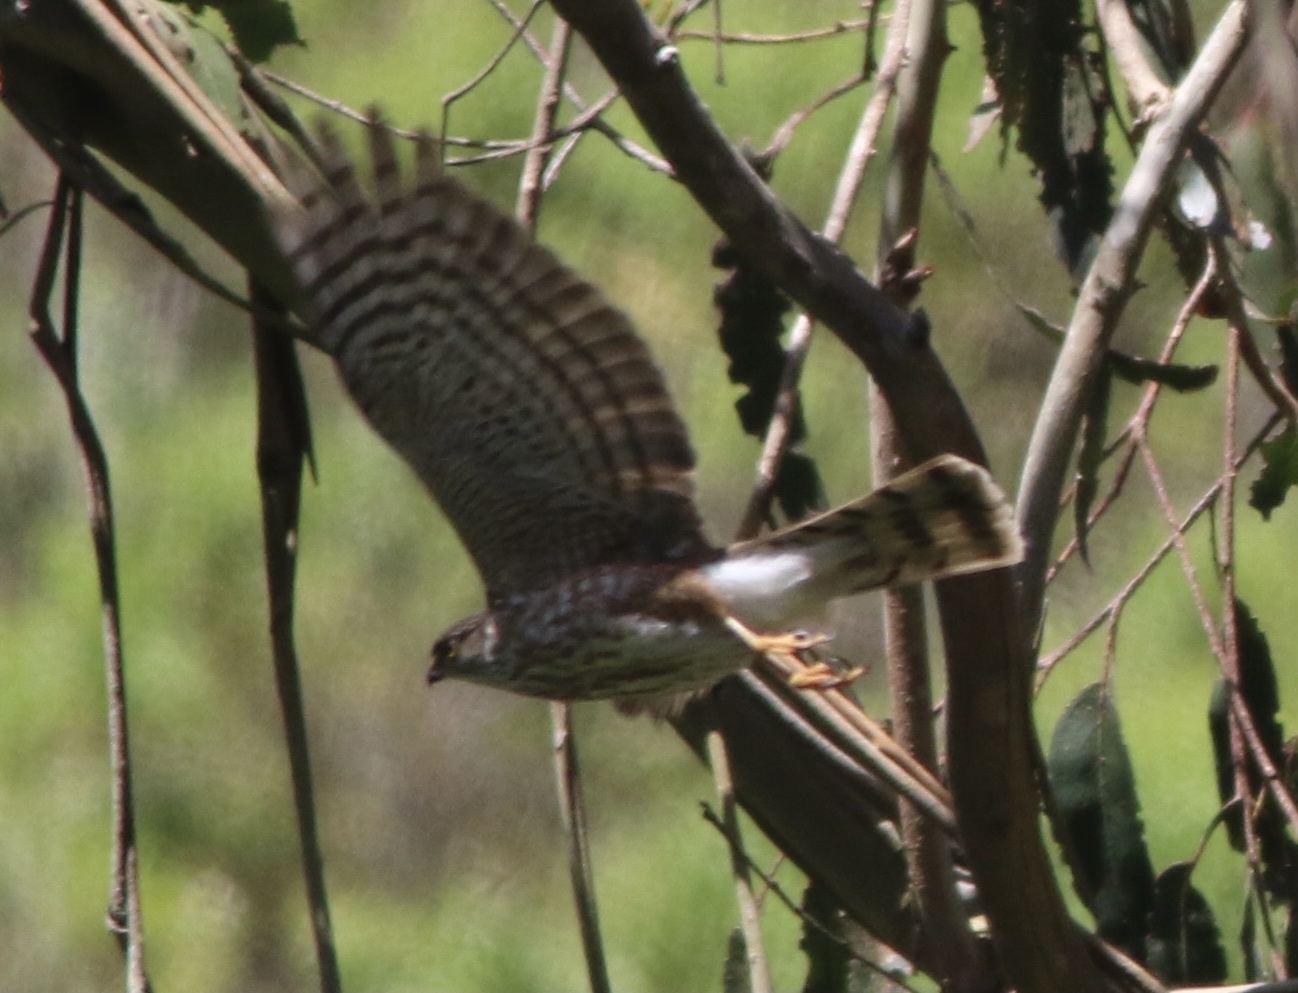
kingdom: Animalia
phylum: Chordata
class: Aves
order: Accipitriformes
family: Accipitridae
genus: Accipiter
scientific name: Accipiter striatus
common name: Sharp-shinned hawk
